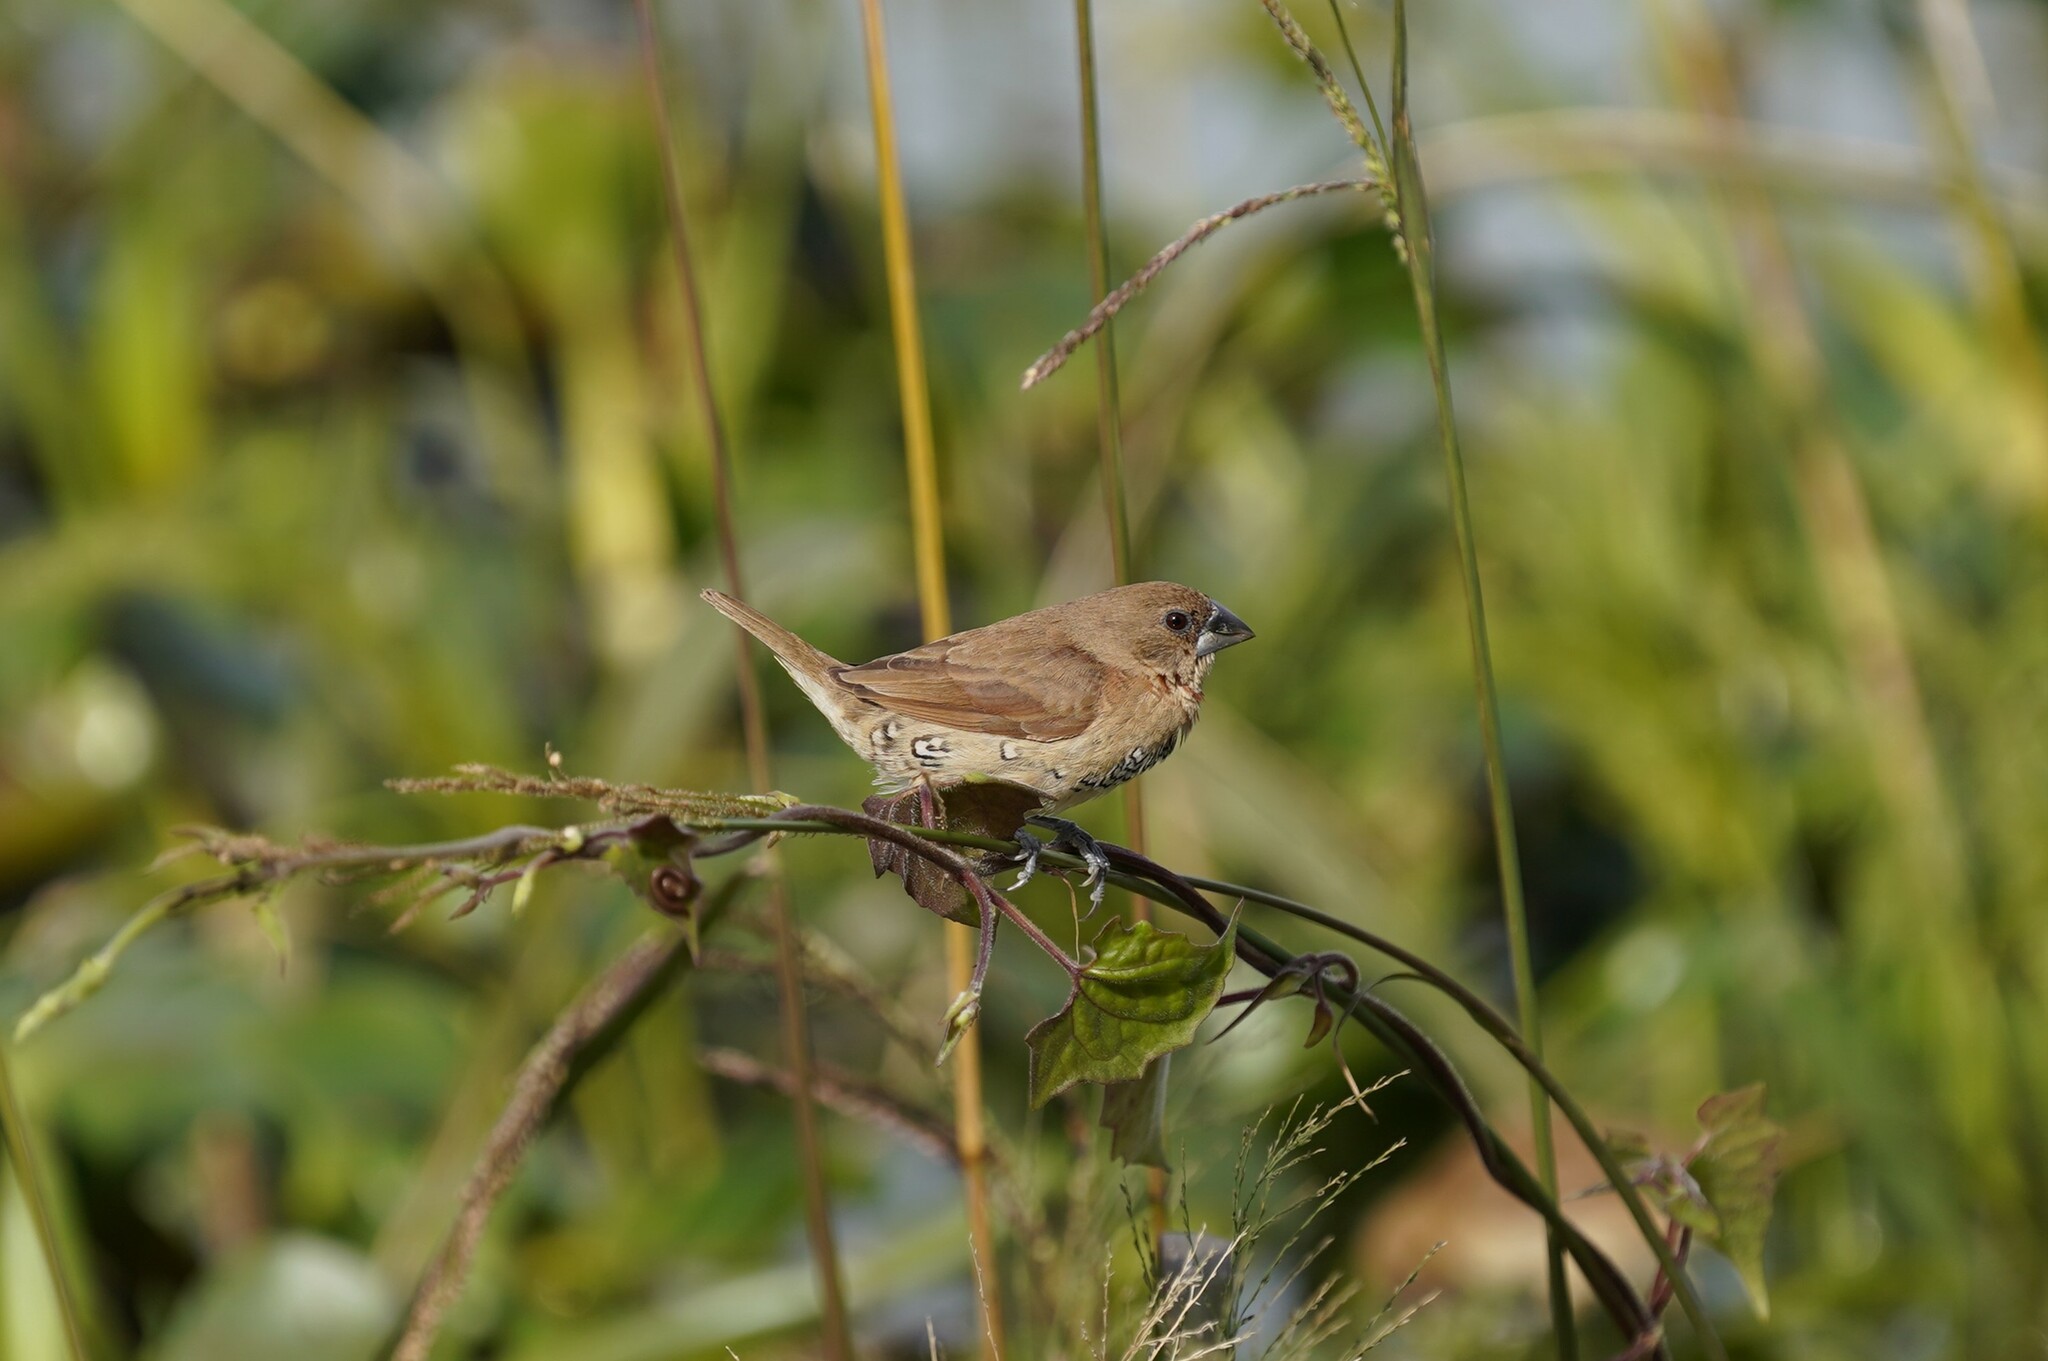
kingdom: Animalia
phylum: Chordata
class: Aves
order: Passeriformes
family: Estrildidae
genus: Lonchura
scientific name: Lonchura punctulata
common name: Scaly-breasted munia
